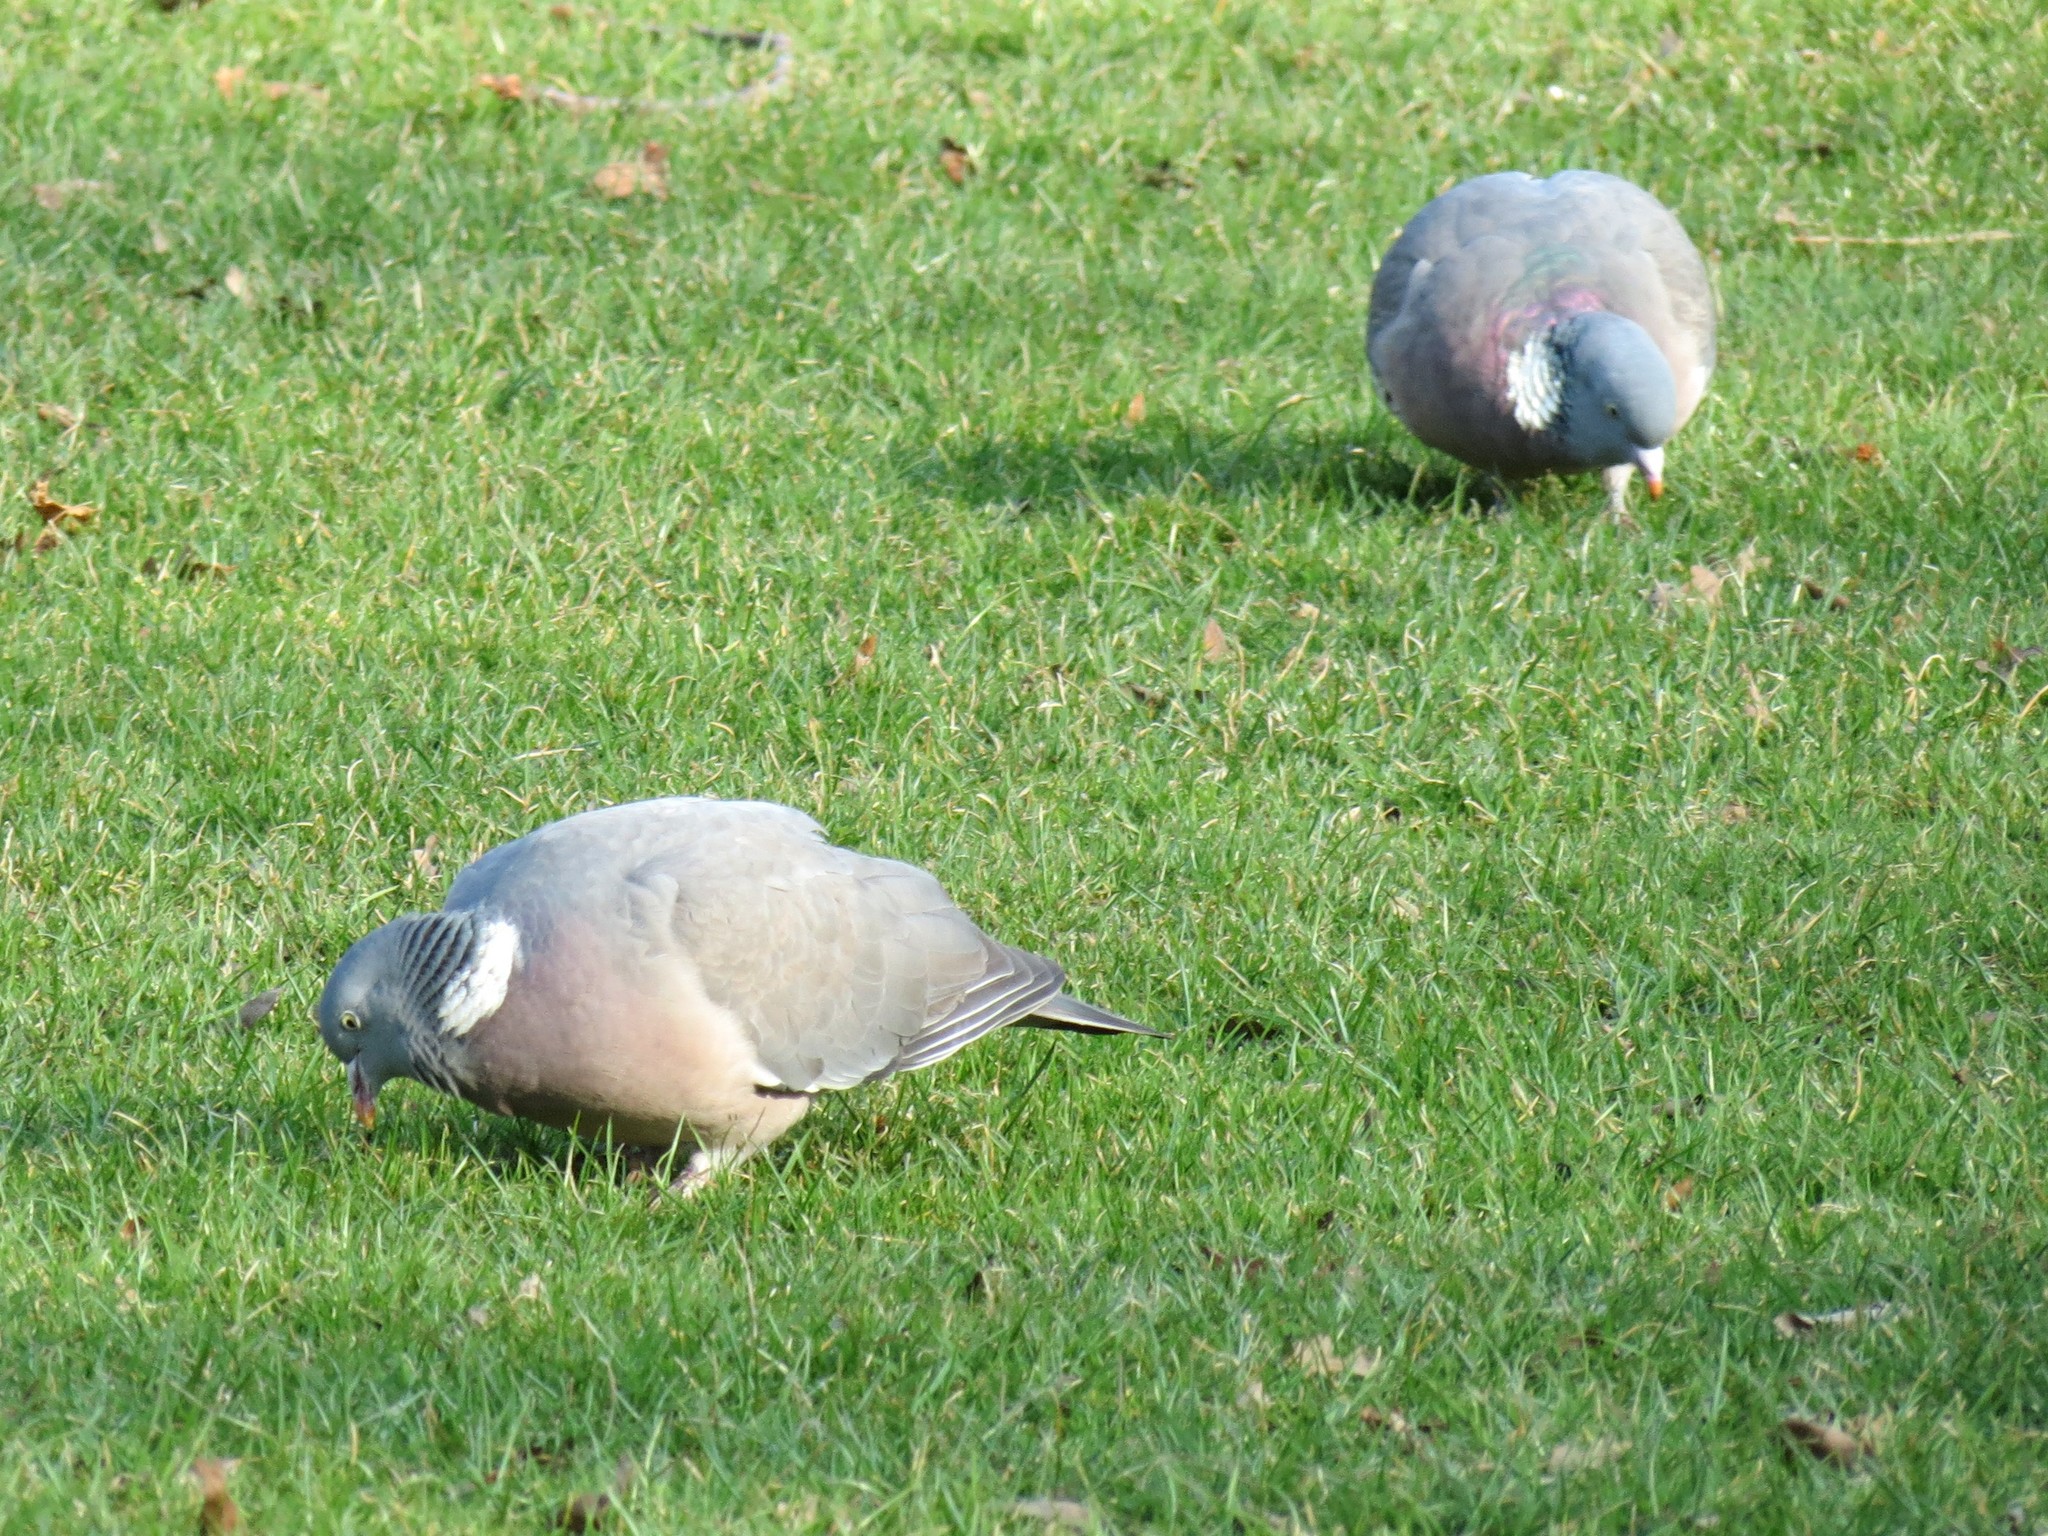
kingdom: Animalia
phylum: Chordata
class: Aves
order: Columbiformes
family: Columbidae
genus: Columba
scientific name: Columba palumbus
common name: Common wood pigeon
